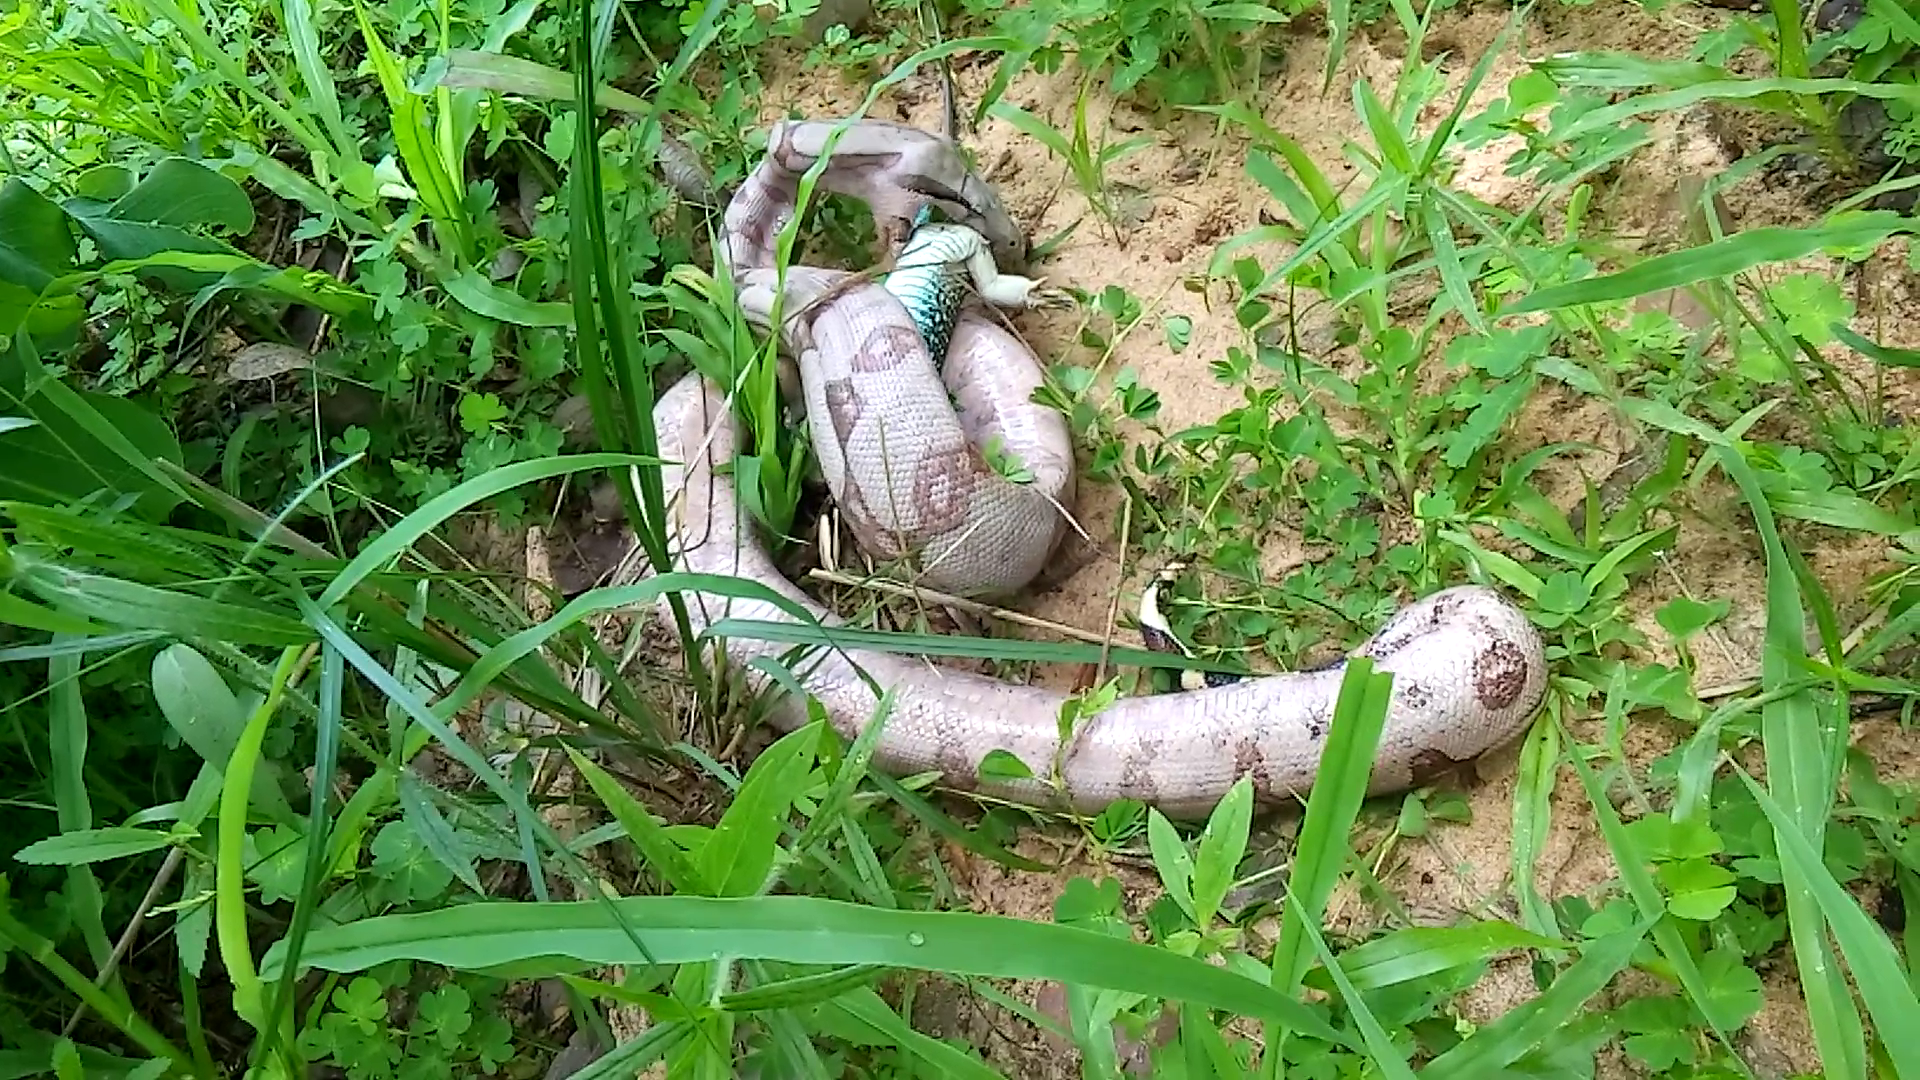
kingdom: Animalia
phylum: Chordata
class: Squamata
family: Teiidae
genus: Ameiva
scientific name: Ameiva ameiva
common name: Giant ameiva
